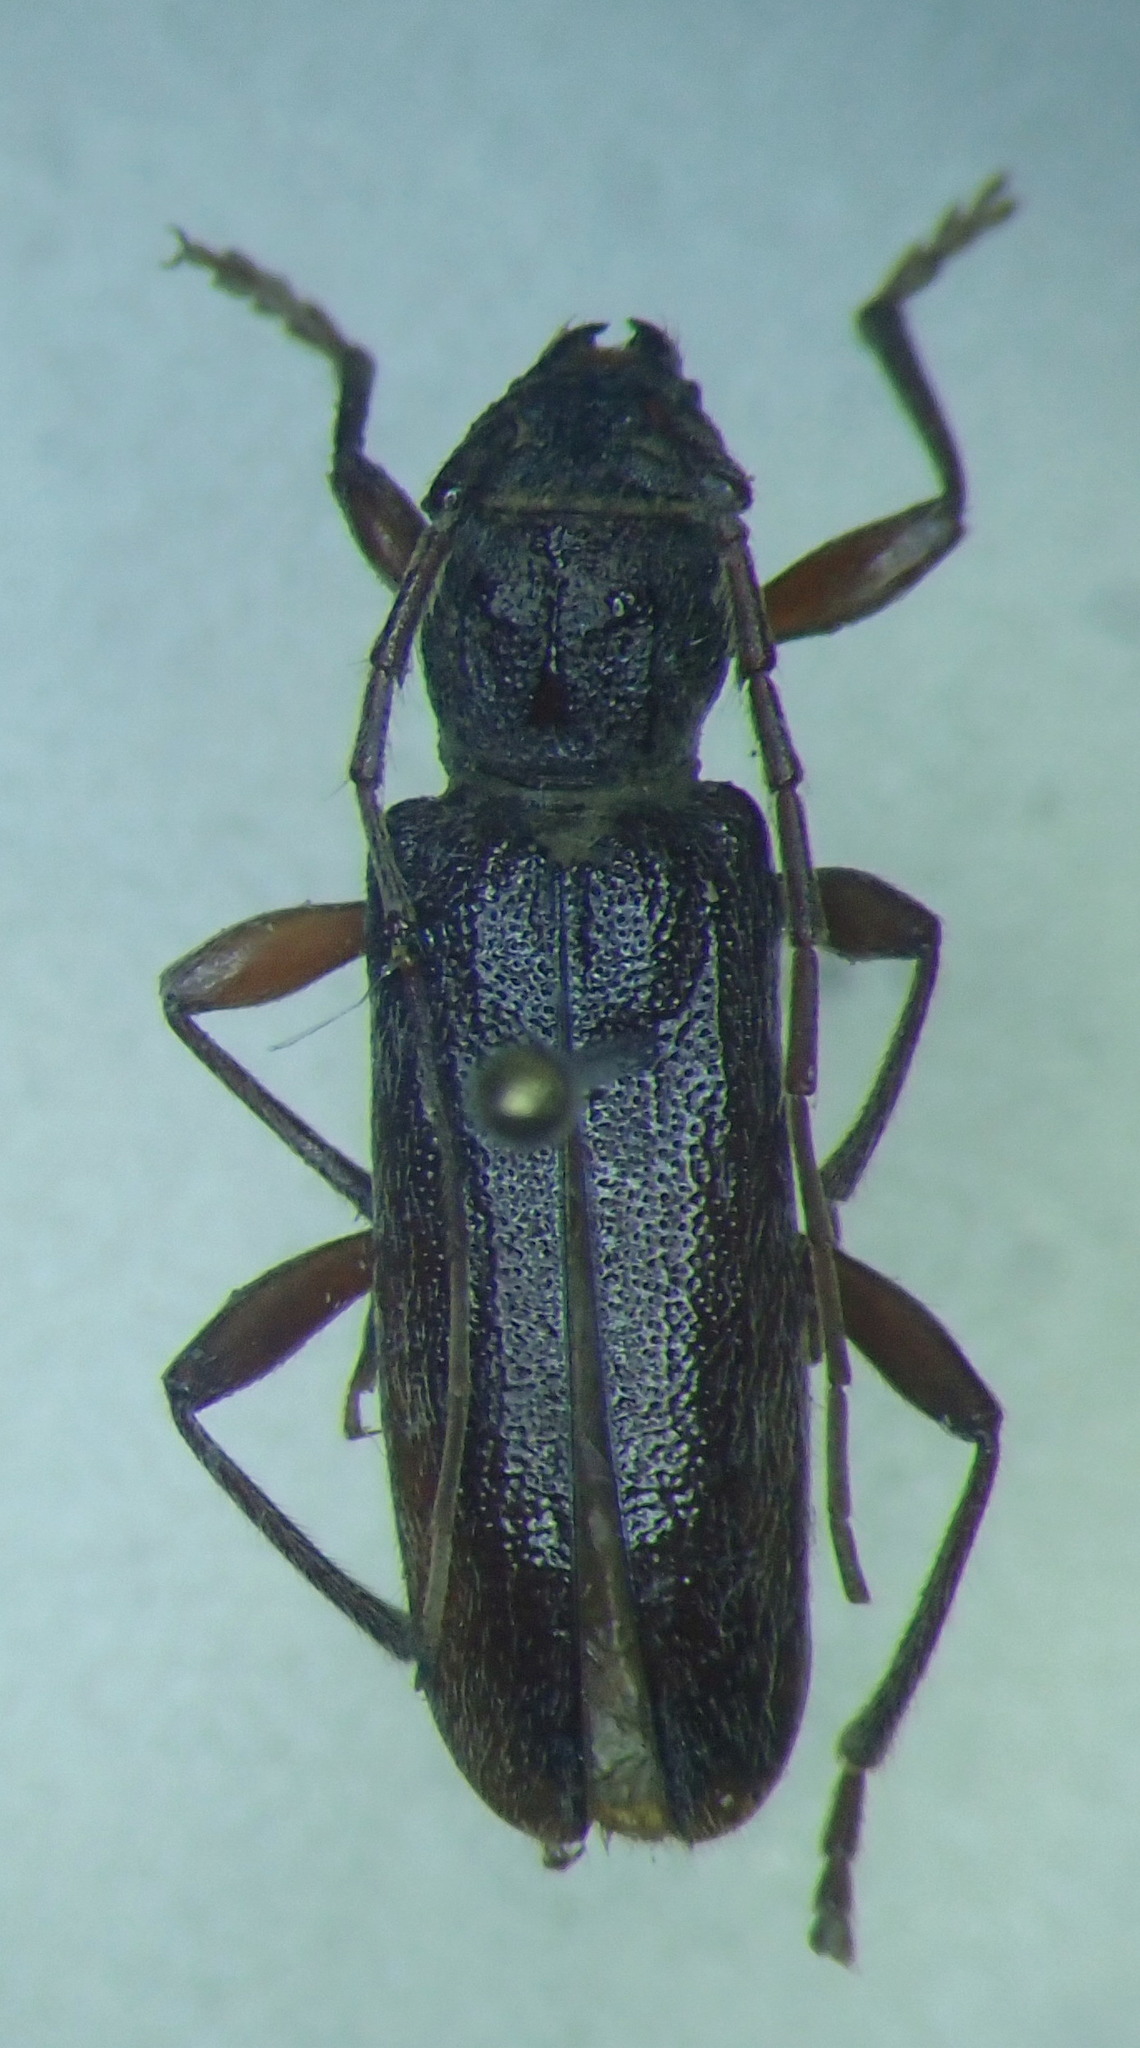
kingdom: Animalia
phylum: Arthropoda
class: Insecta
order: Coleoptera
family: Cerambycidae
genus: Liogramma
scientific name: Liogramma zelandica
